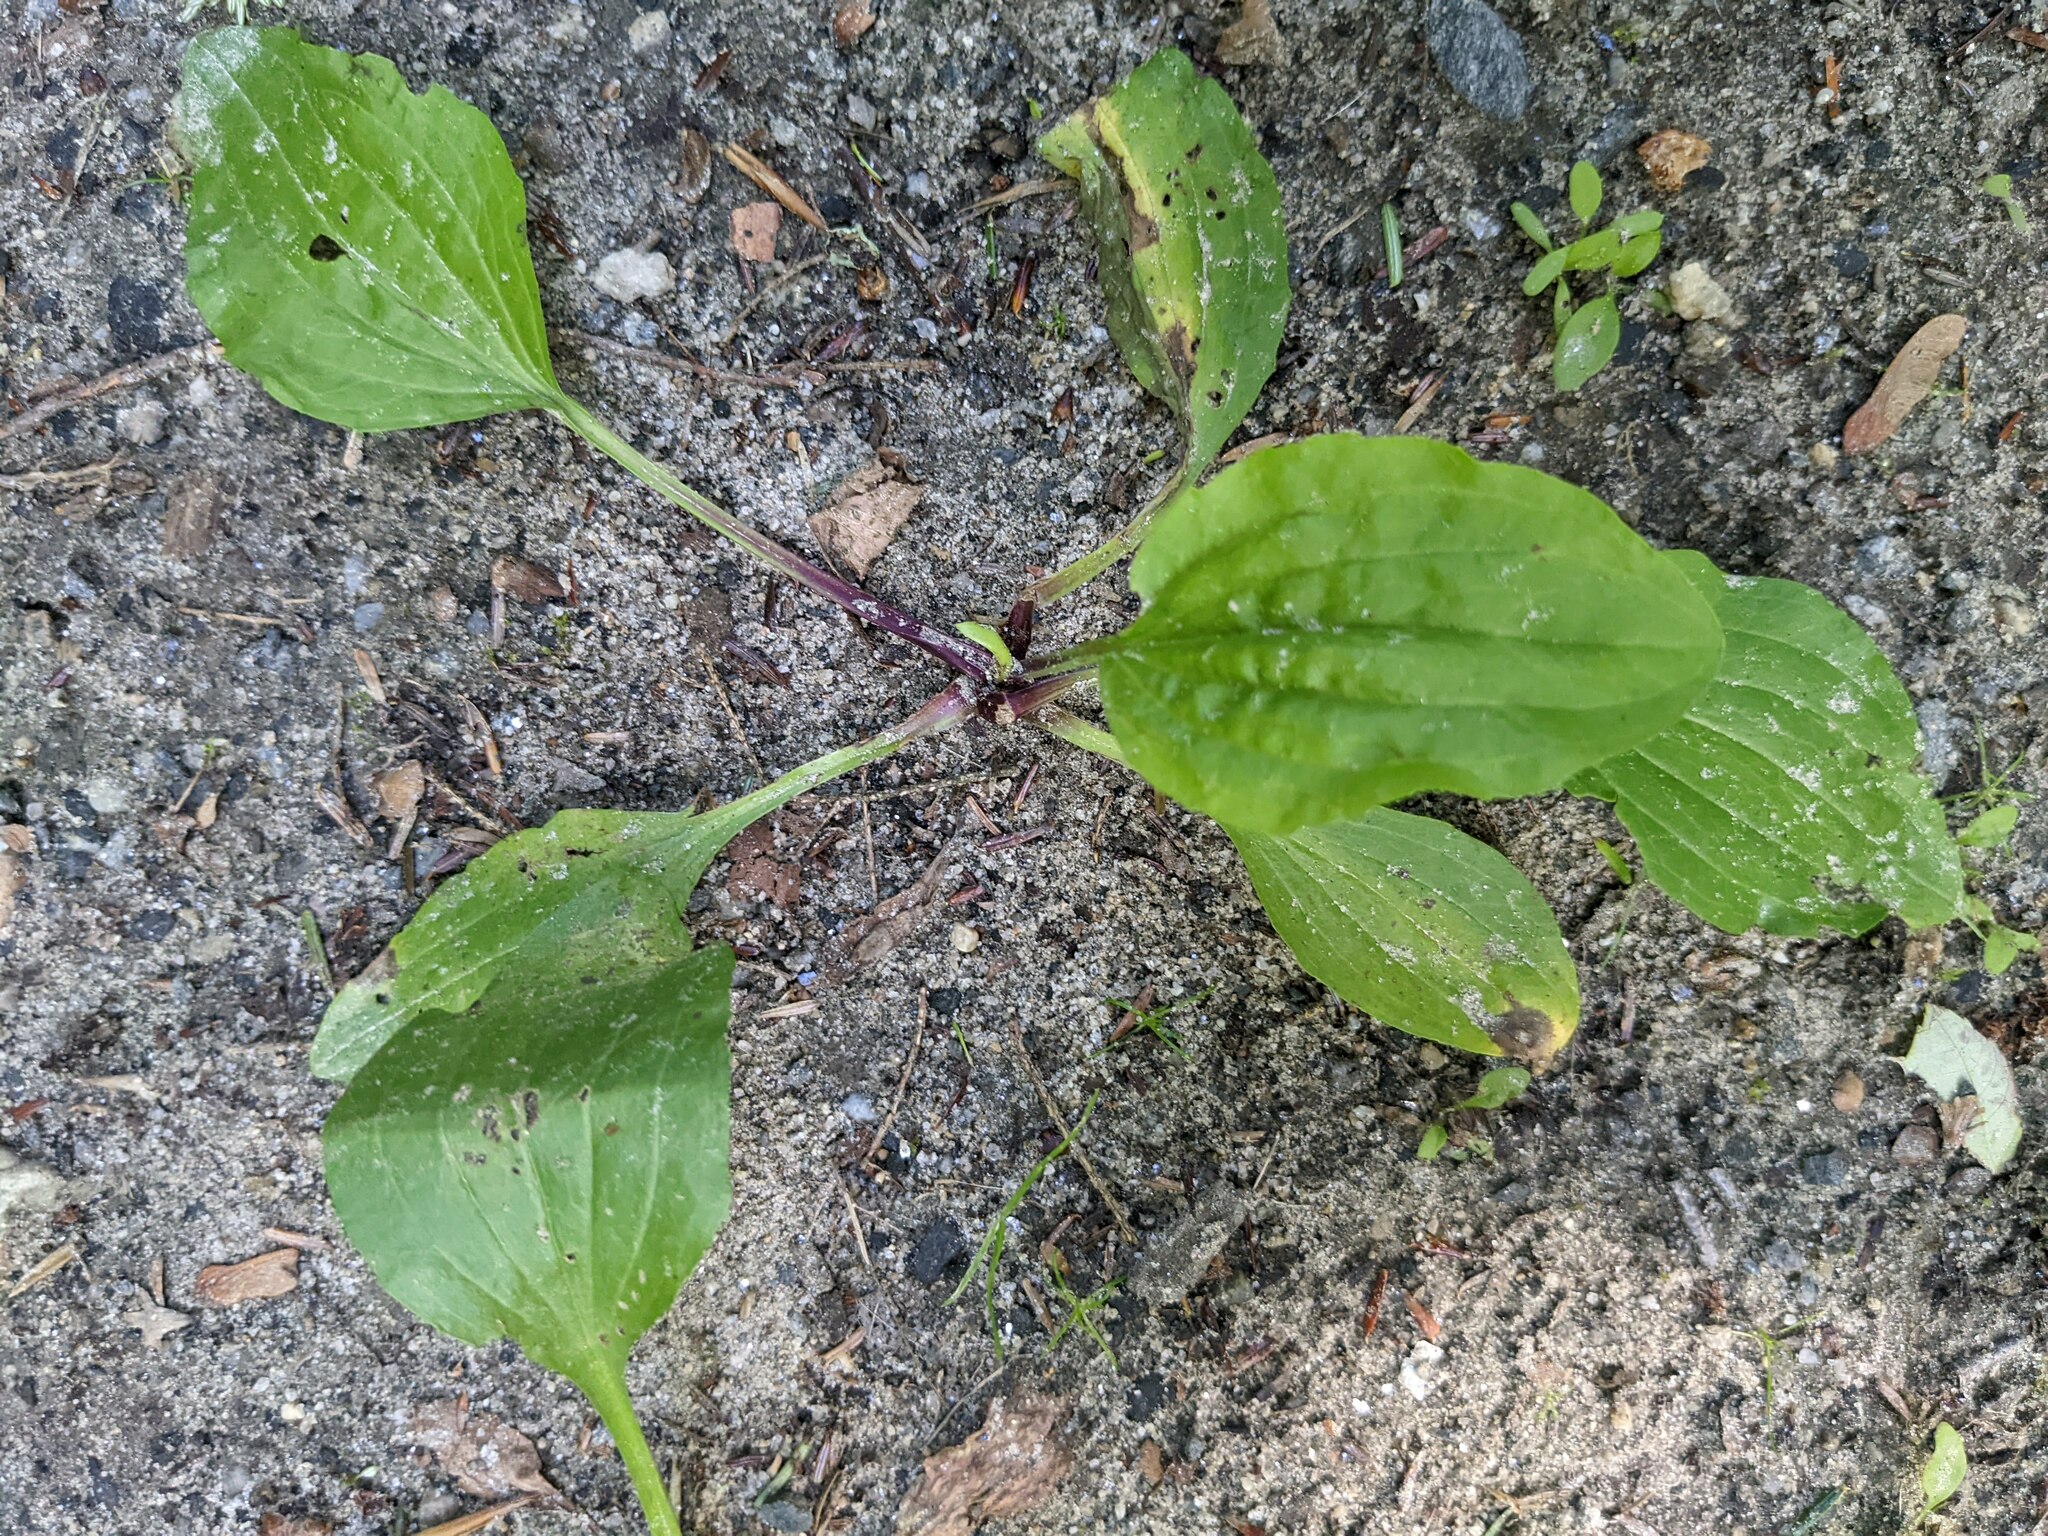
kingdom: Plantae
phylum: Tracheophyta
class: Magnoliopsida
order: Lamiales
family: Plantaginaceae
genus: Plantago
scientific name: Plantago rugelii
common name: American plantain
